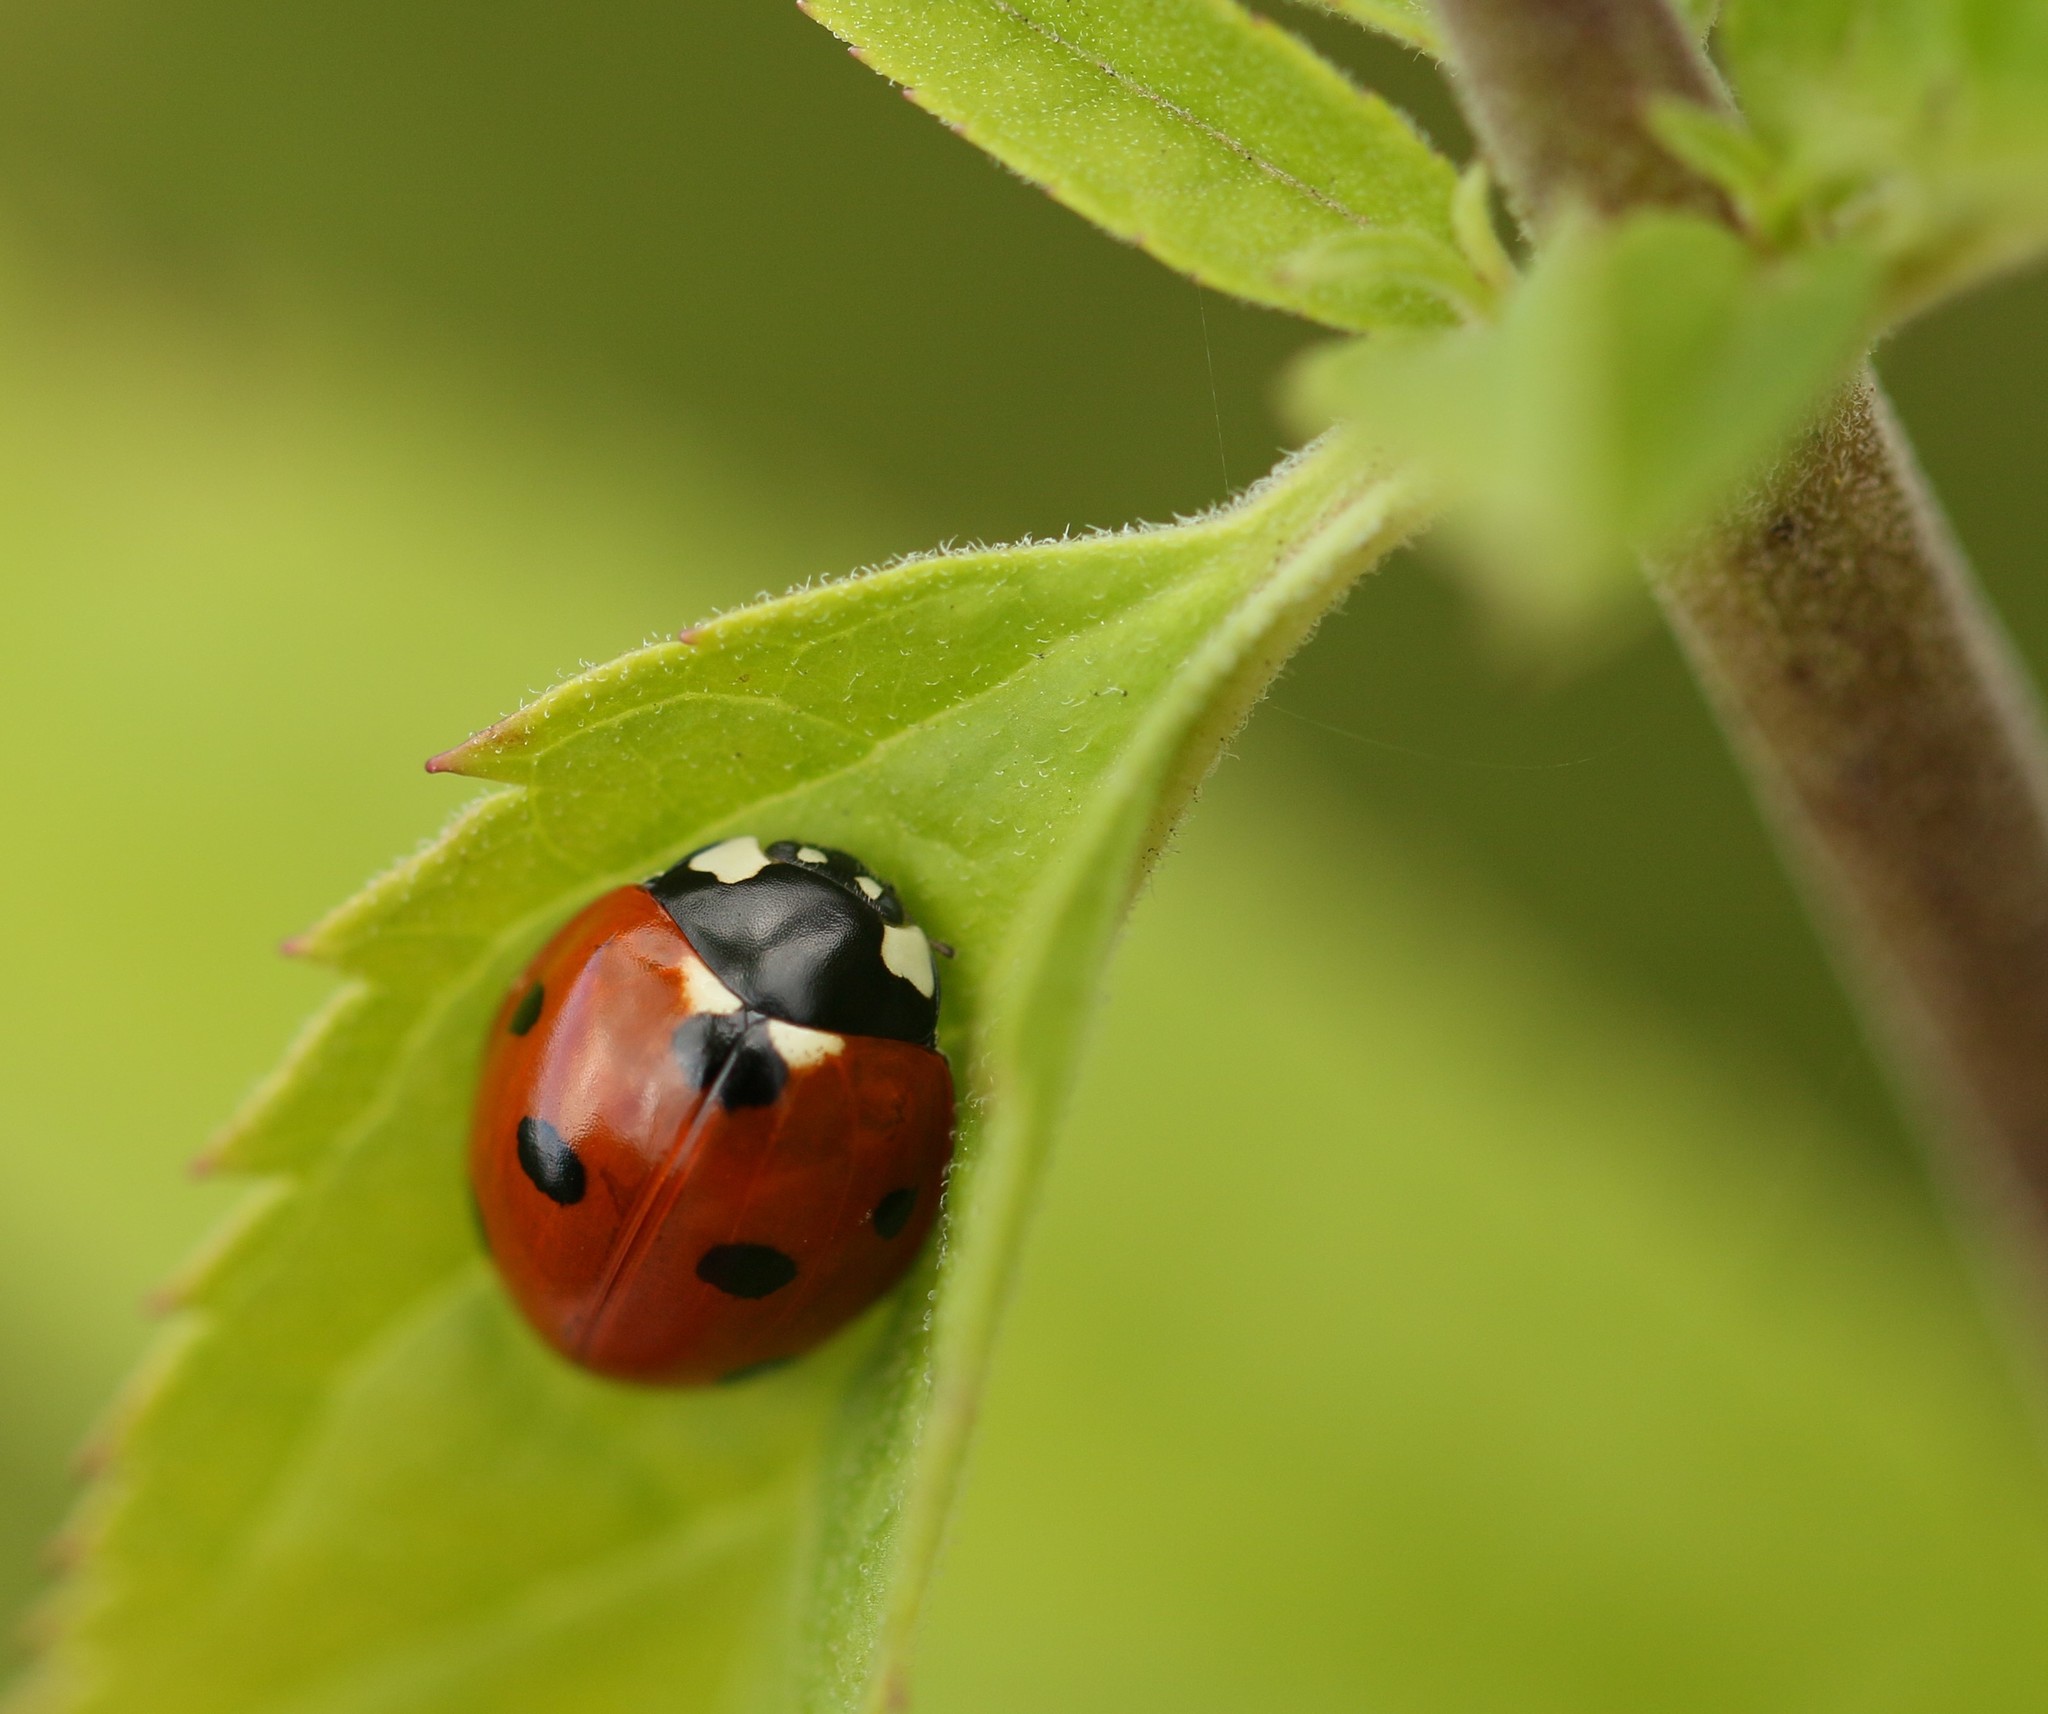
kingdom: Animalia
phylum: Arthropoda
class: Insecta
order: Coleoptera
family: Coccinellidae
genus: Coccinella
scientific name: Coccinella septempunctata
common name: Sevenspotted lady beetle
